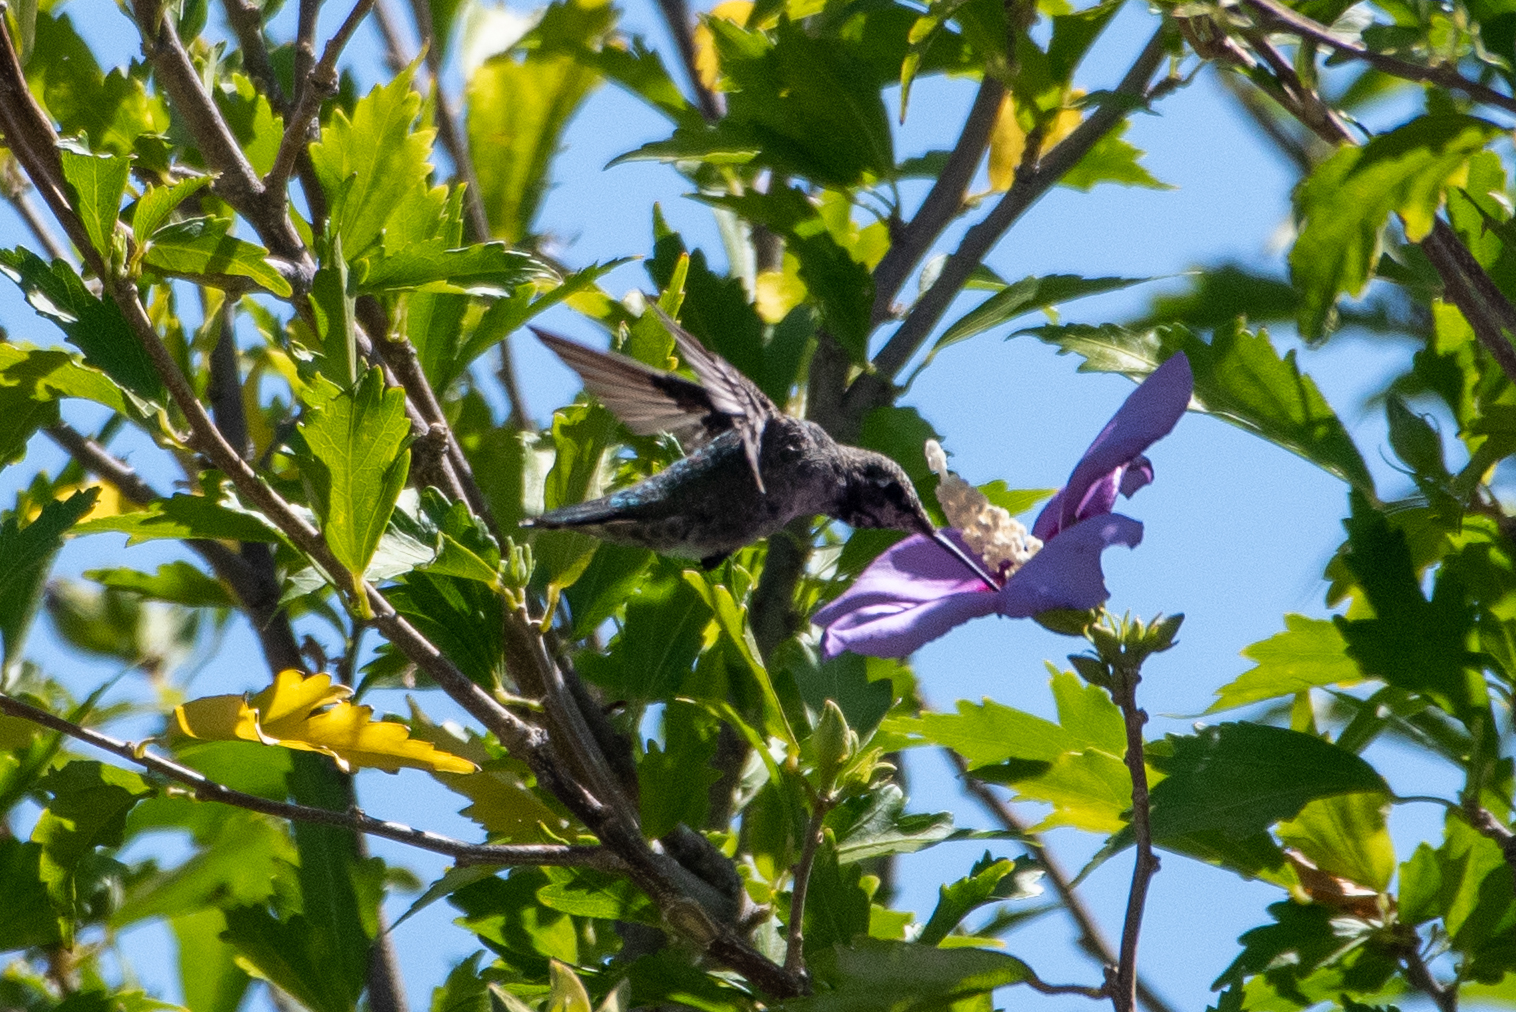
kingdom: Animalia
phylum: Chordata
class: Aves
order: Apodiformes
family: Trochilidae
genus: Calypte
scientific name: Calypte anna
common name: Anna's hummingbird
